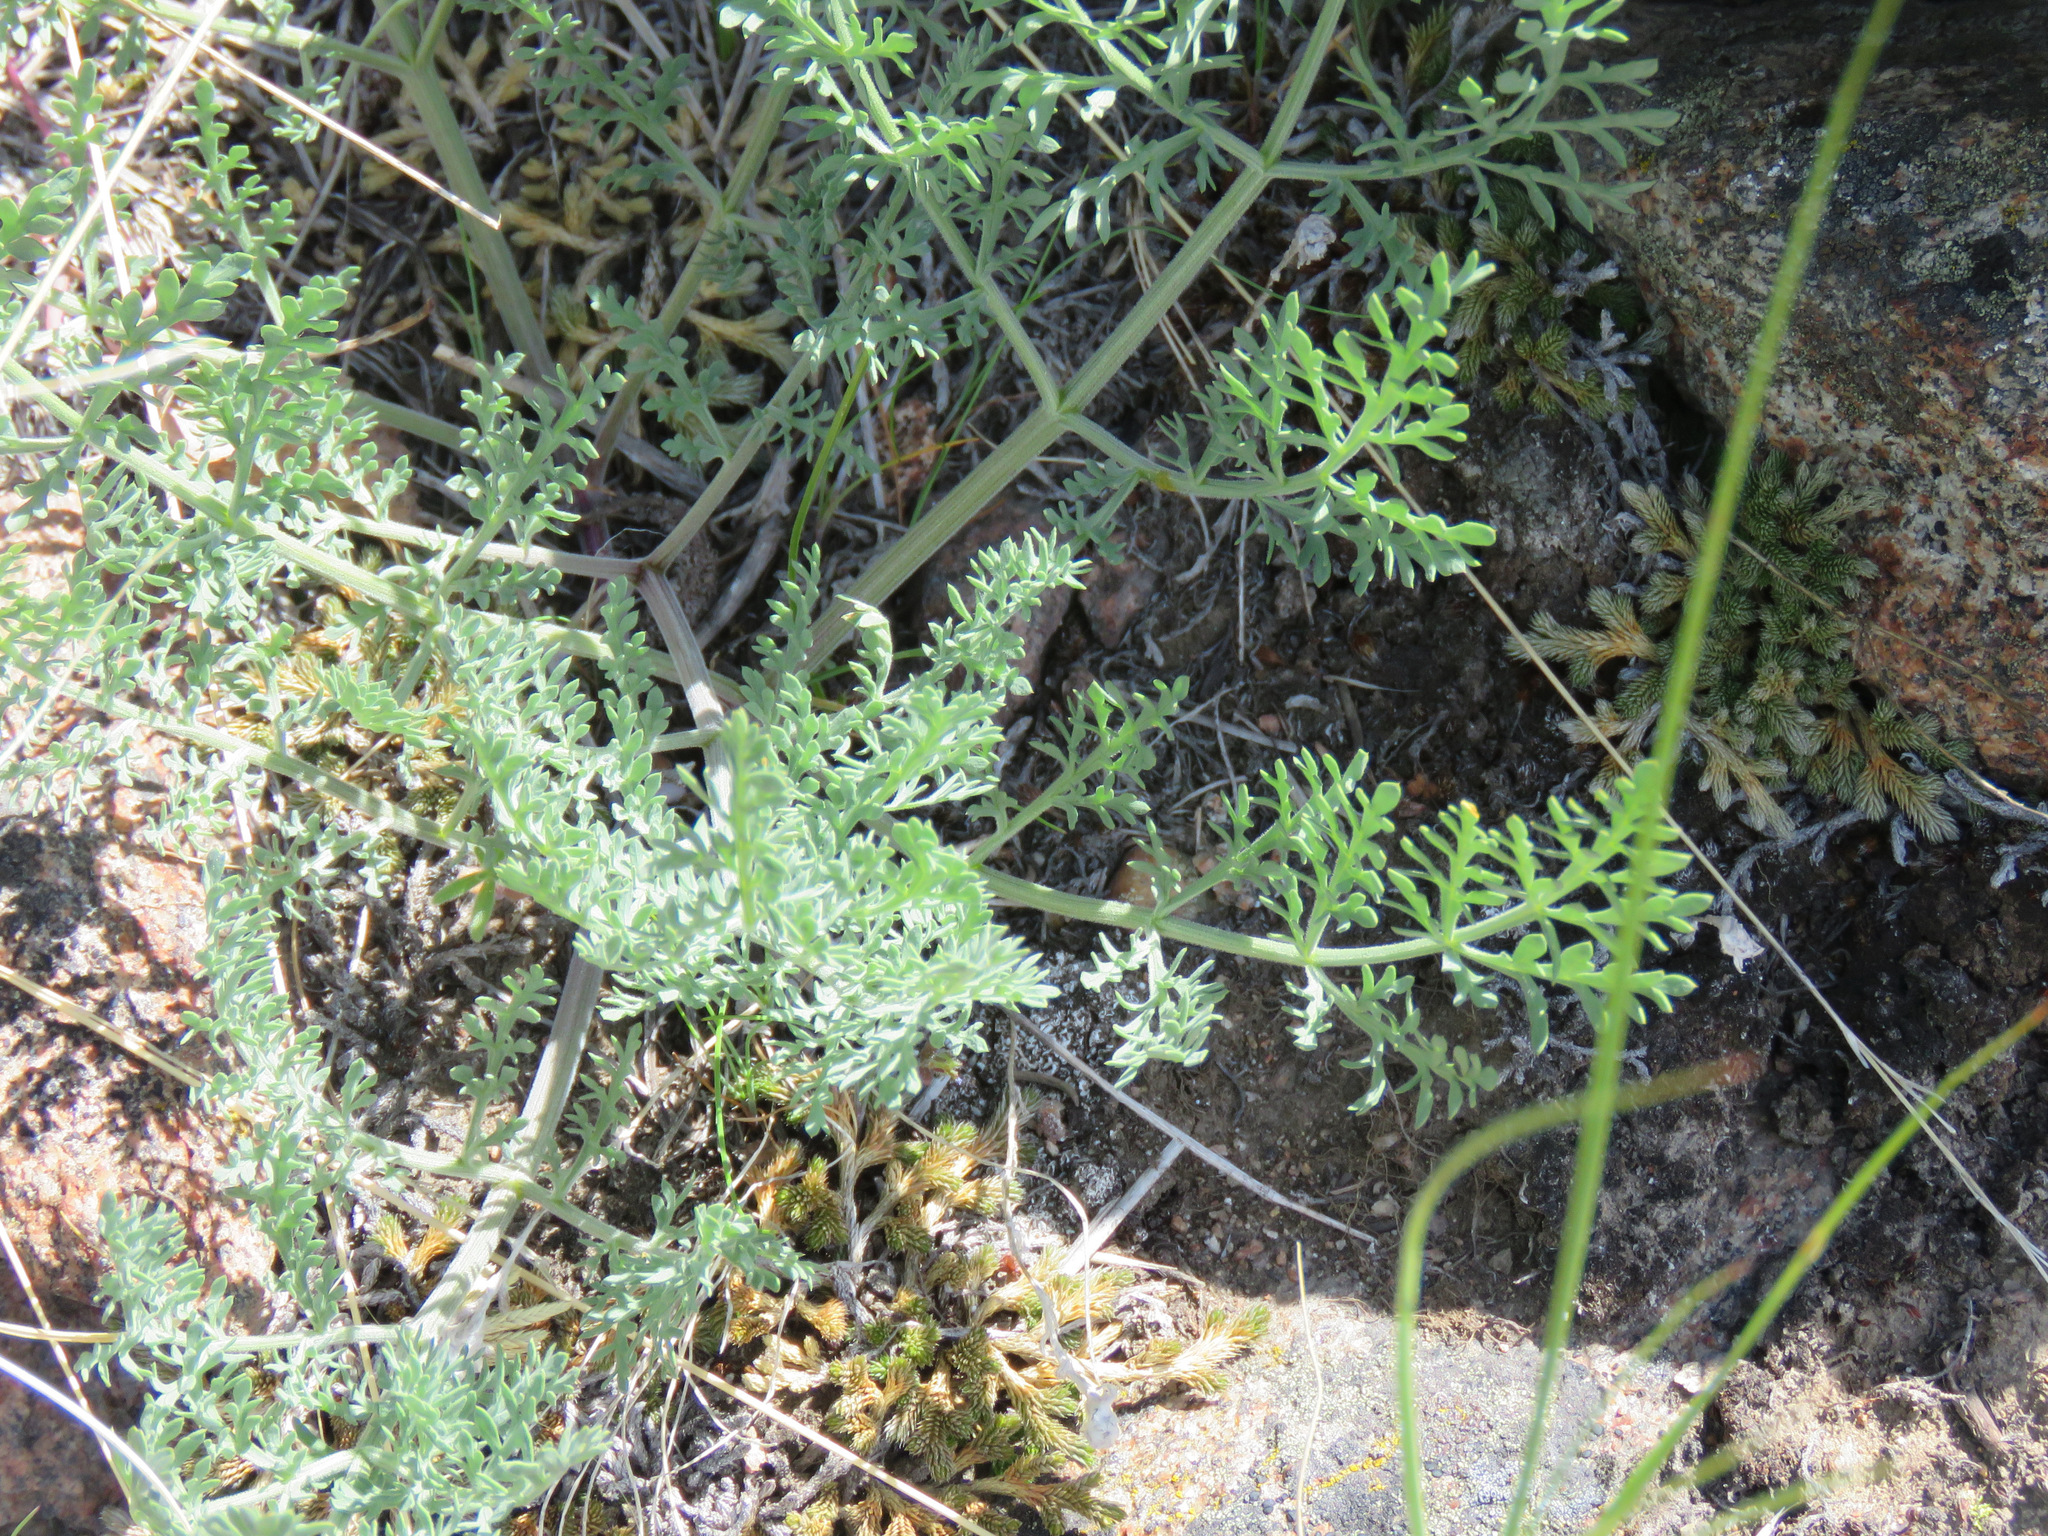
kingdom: Plantae
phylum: Tracheophyta
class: Magnoliopsida
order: Apiales
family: Apiaceae
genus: Lomatium
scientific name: Lomatium macrocarpum
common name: Big-seed biscuitroot
